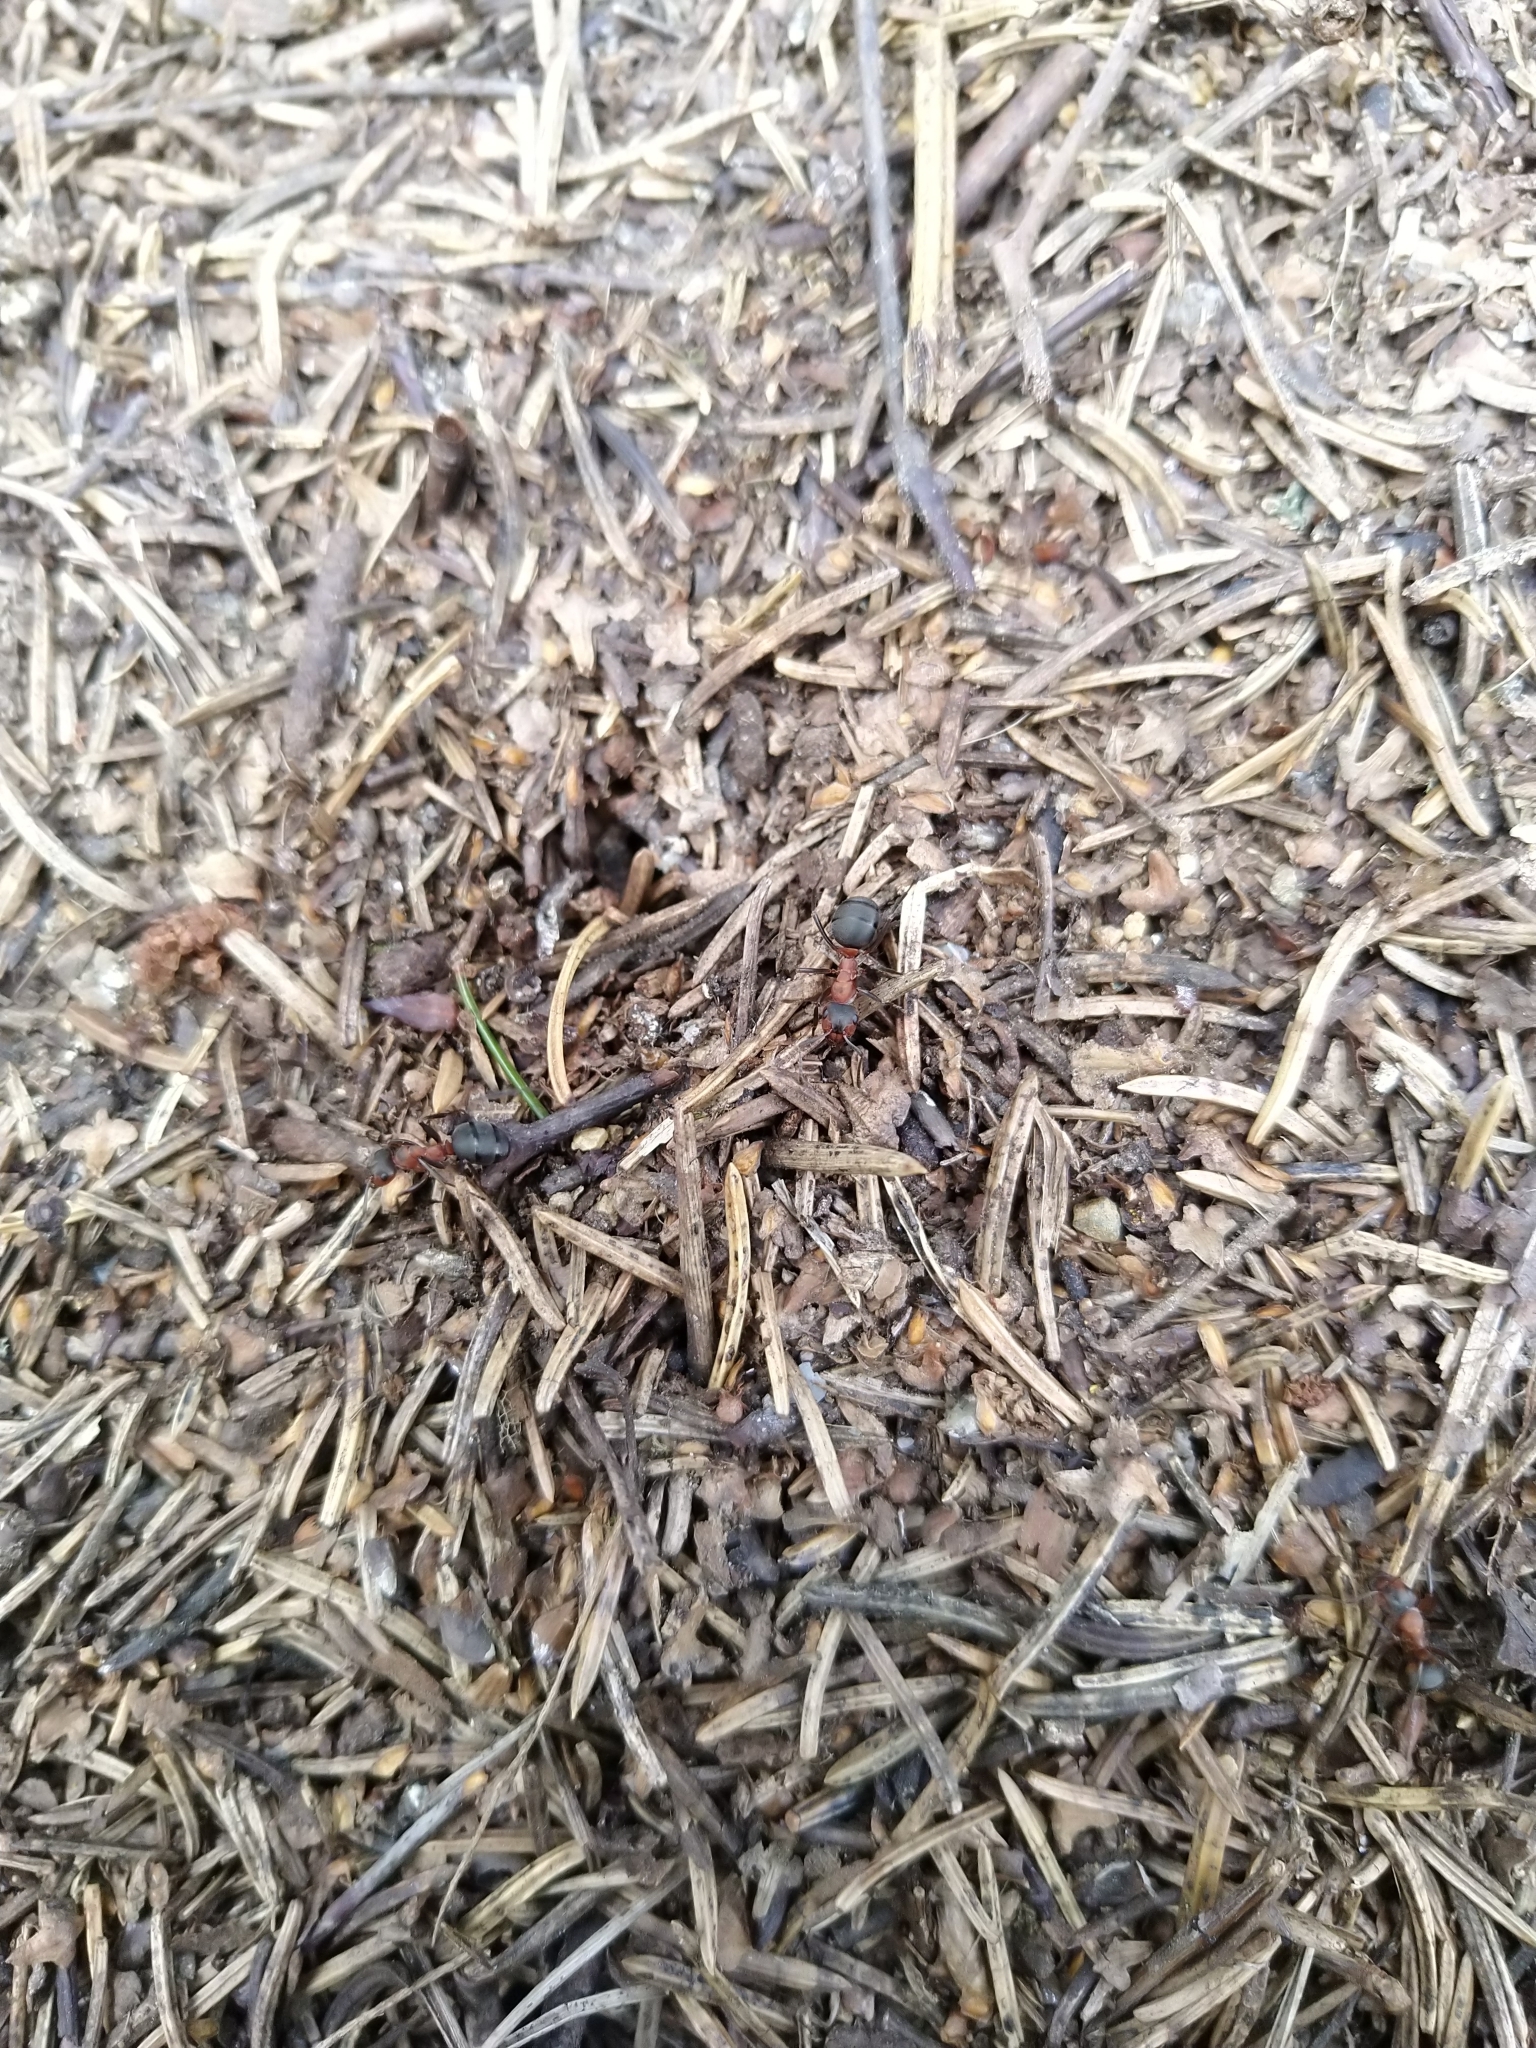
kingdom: Animalia
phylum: Arthropoda
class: Insecta
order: Hymenoptera
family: Formicidae
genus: Formica
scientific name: Formica rufa
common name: Red wood ant
